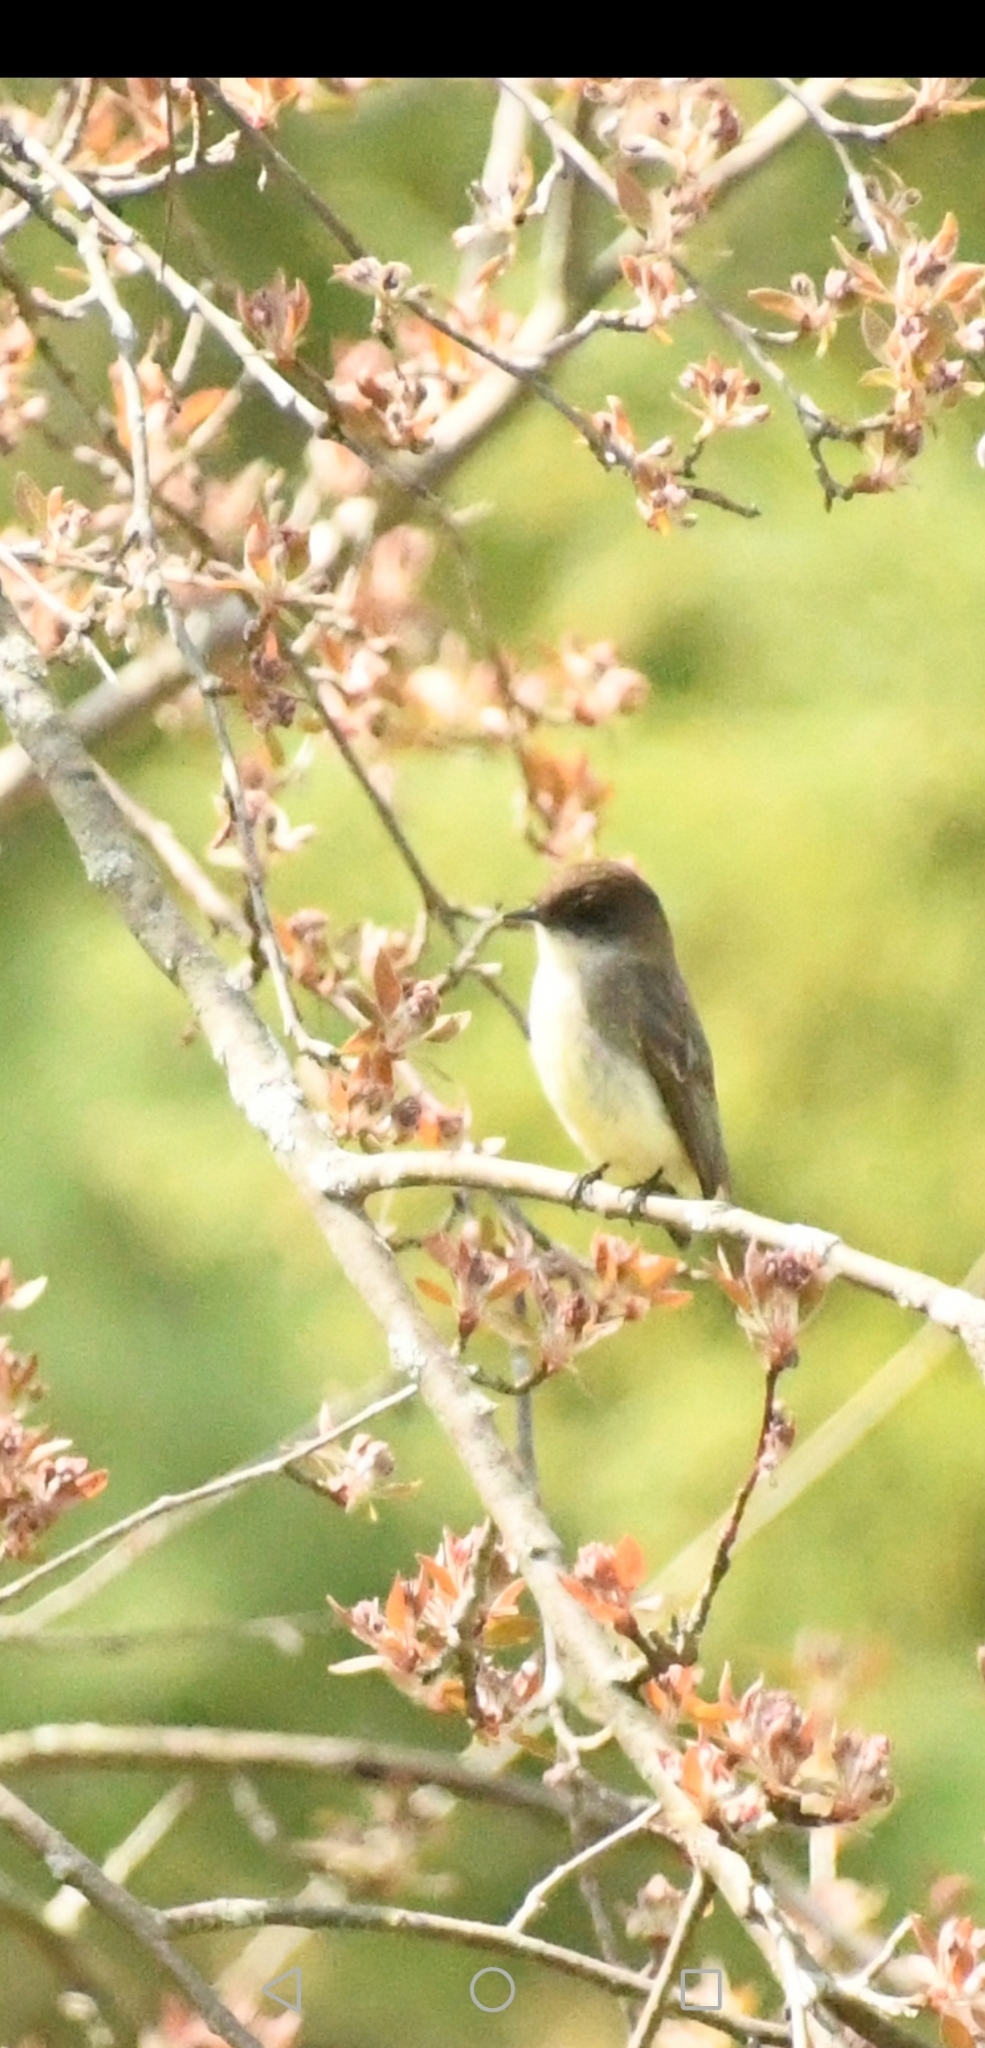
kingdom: Animalia
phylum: Chordata
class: Aves
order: Passeriformes
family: Tyrannidae
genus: Sayornis
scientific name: Sayornis phoebe
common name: Eastern phoebe
